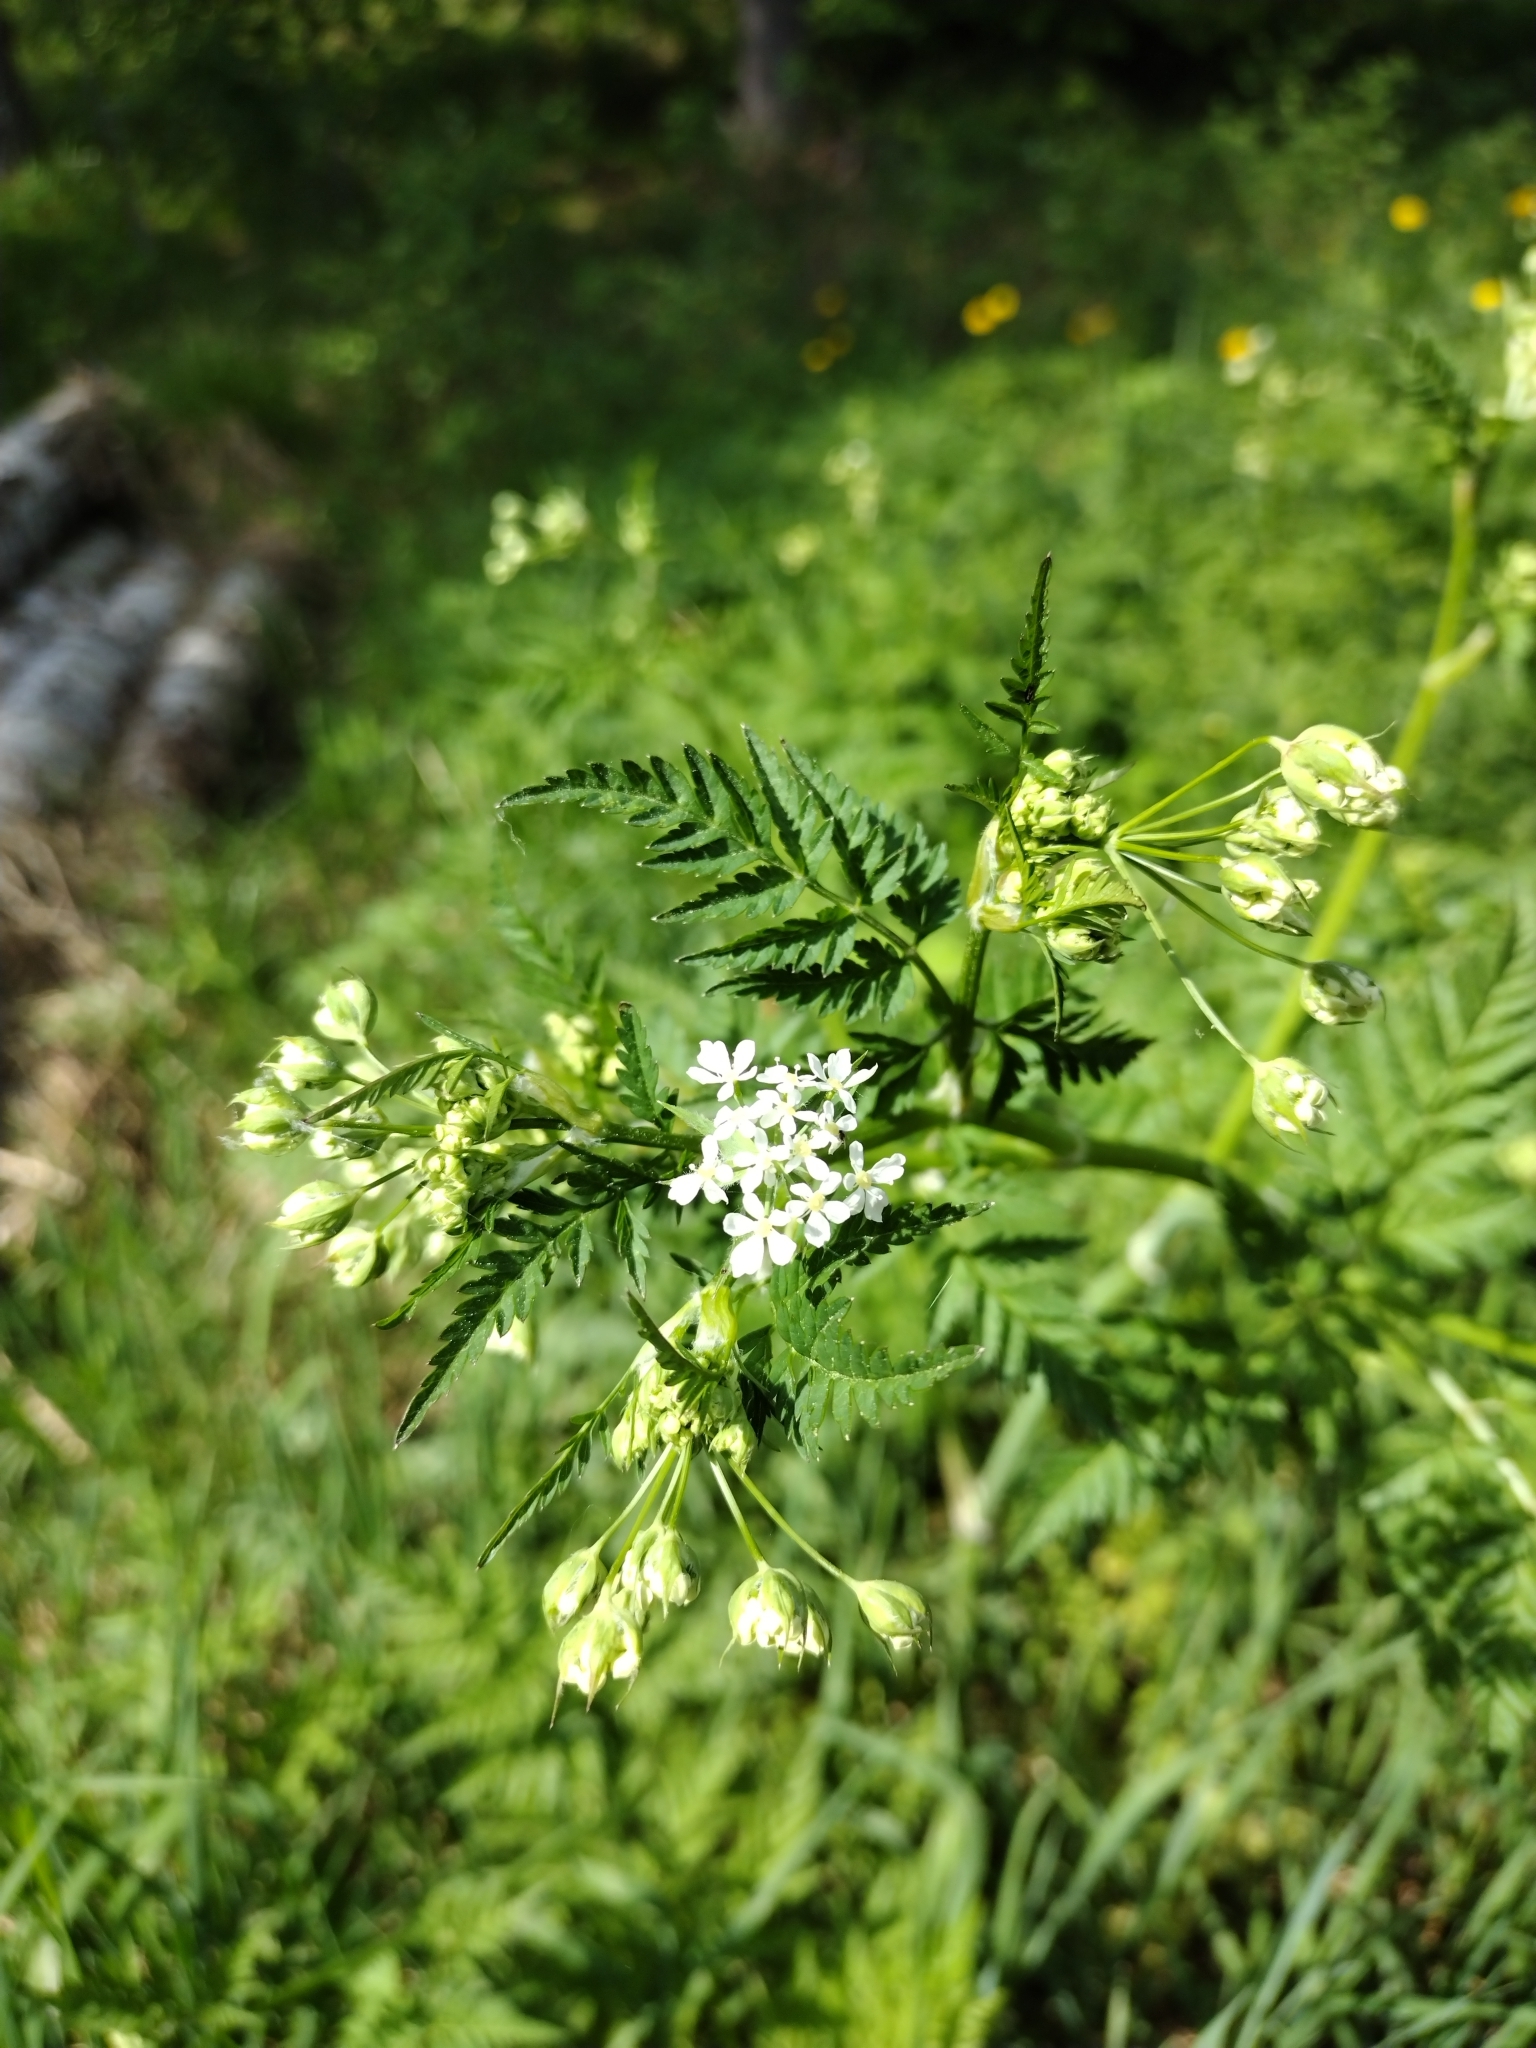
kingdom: Plantae
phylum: Tracheophyta
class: Magnoliopsida
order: Apiales
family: Apiaceae
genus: Anthriscus
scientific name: Anthriscus sylvestris
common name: Cow parsley
